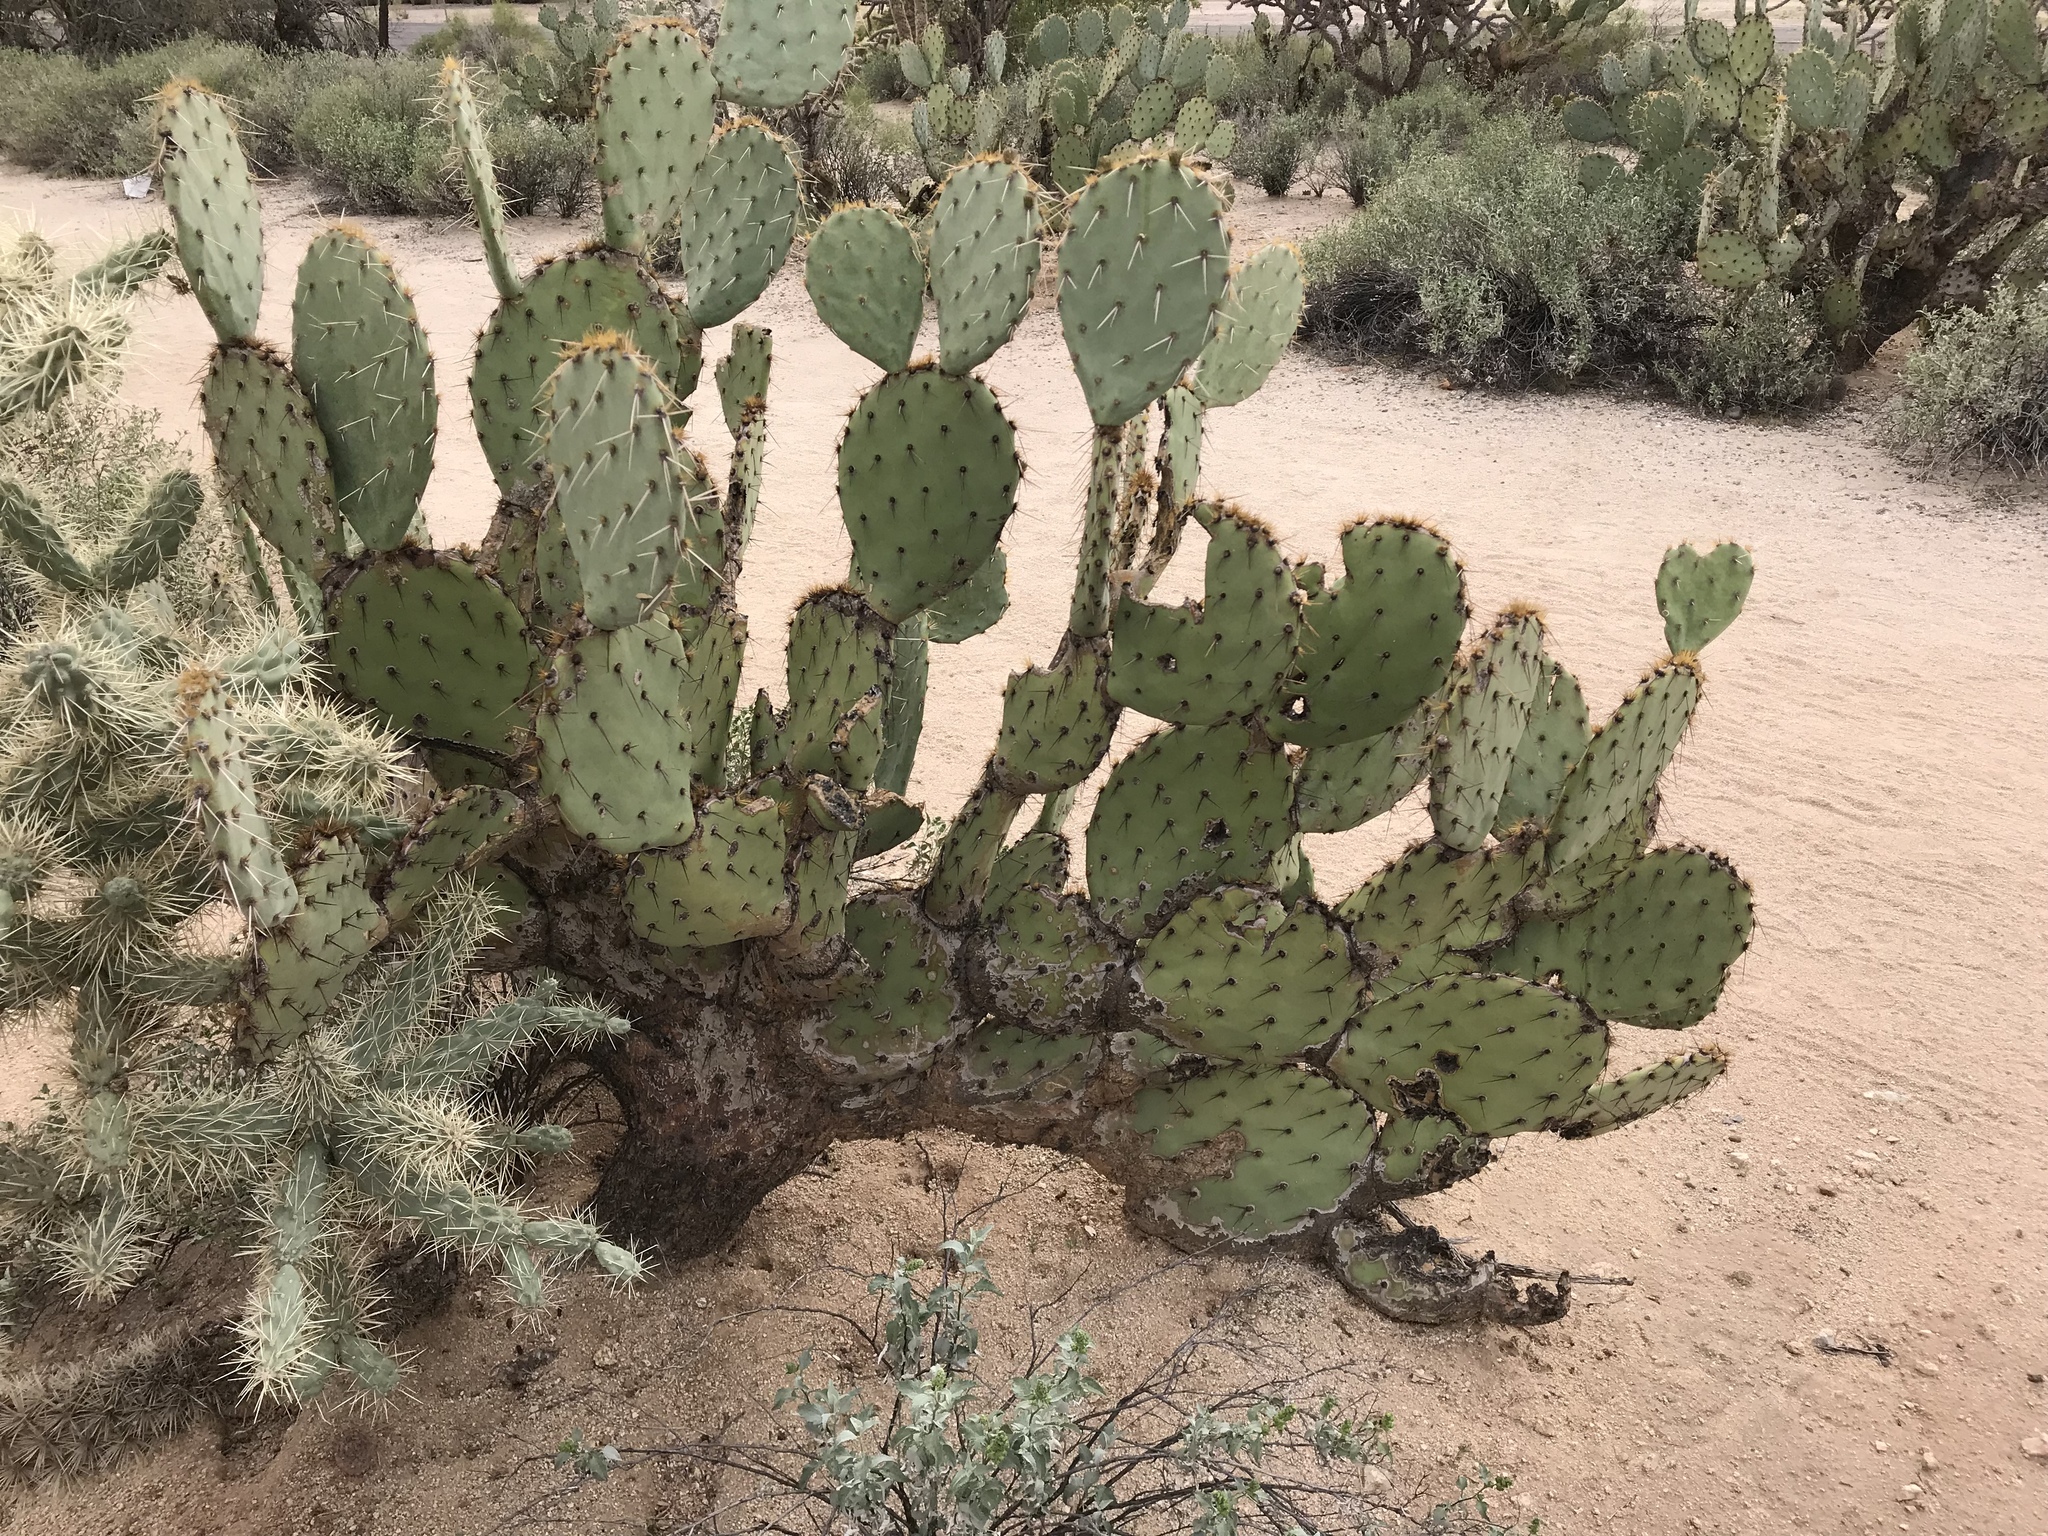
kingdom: Plantae
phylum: Tracheophyta
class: Magnoliopsida
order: Caryophyllales
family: Cactaceae
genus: Opuntia
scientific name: Opuntia engelmannii
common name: Cactus-apple
